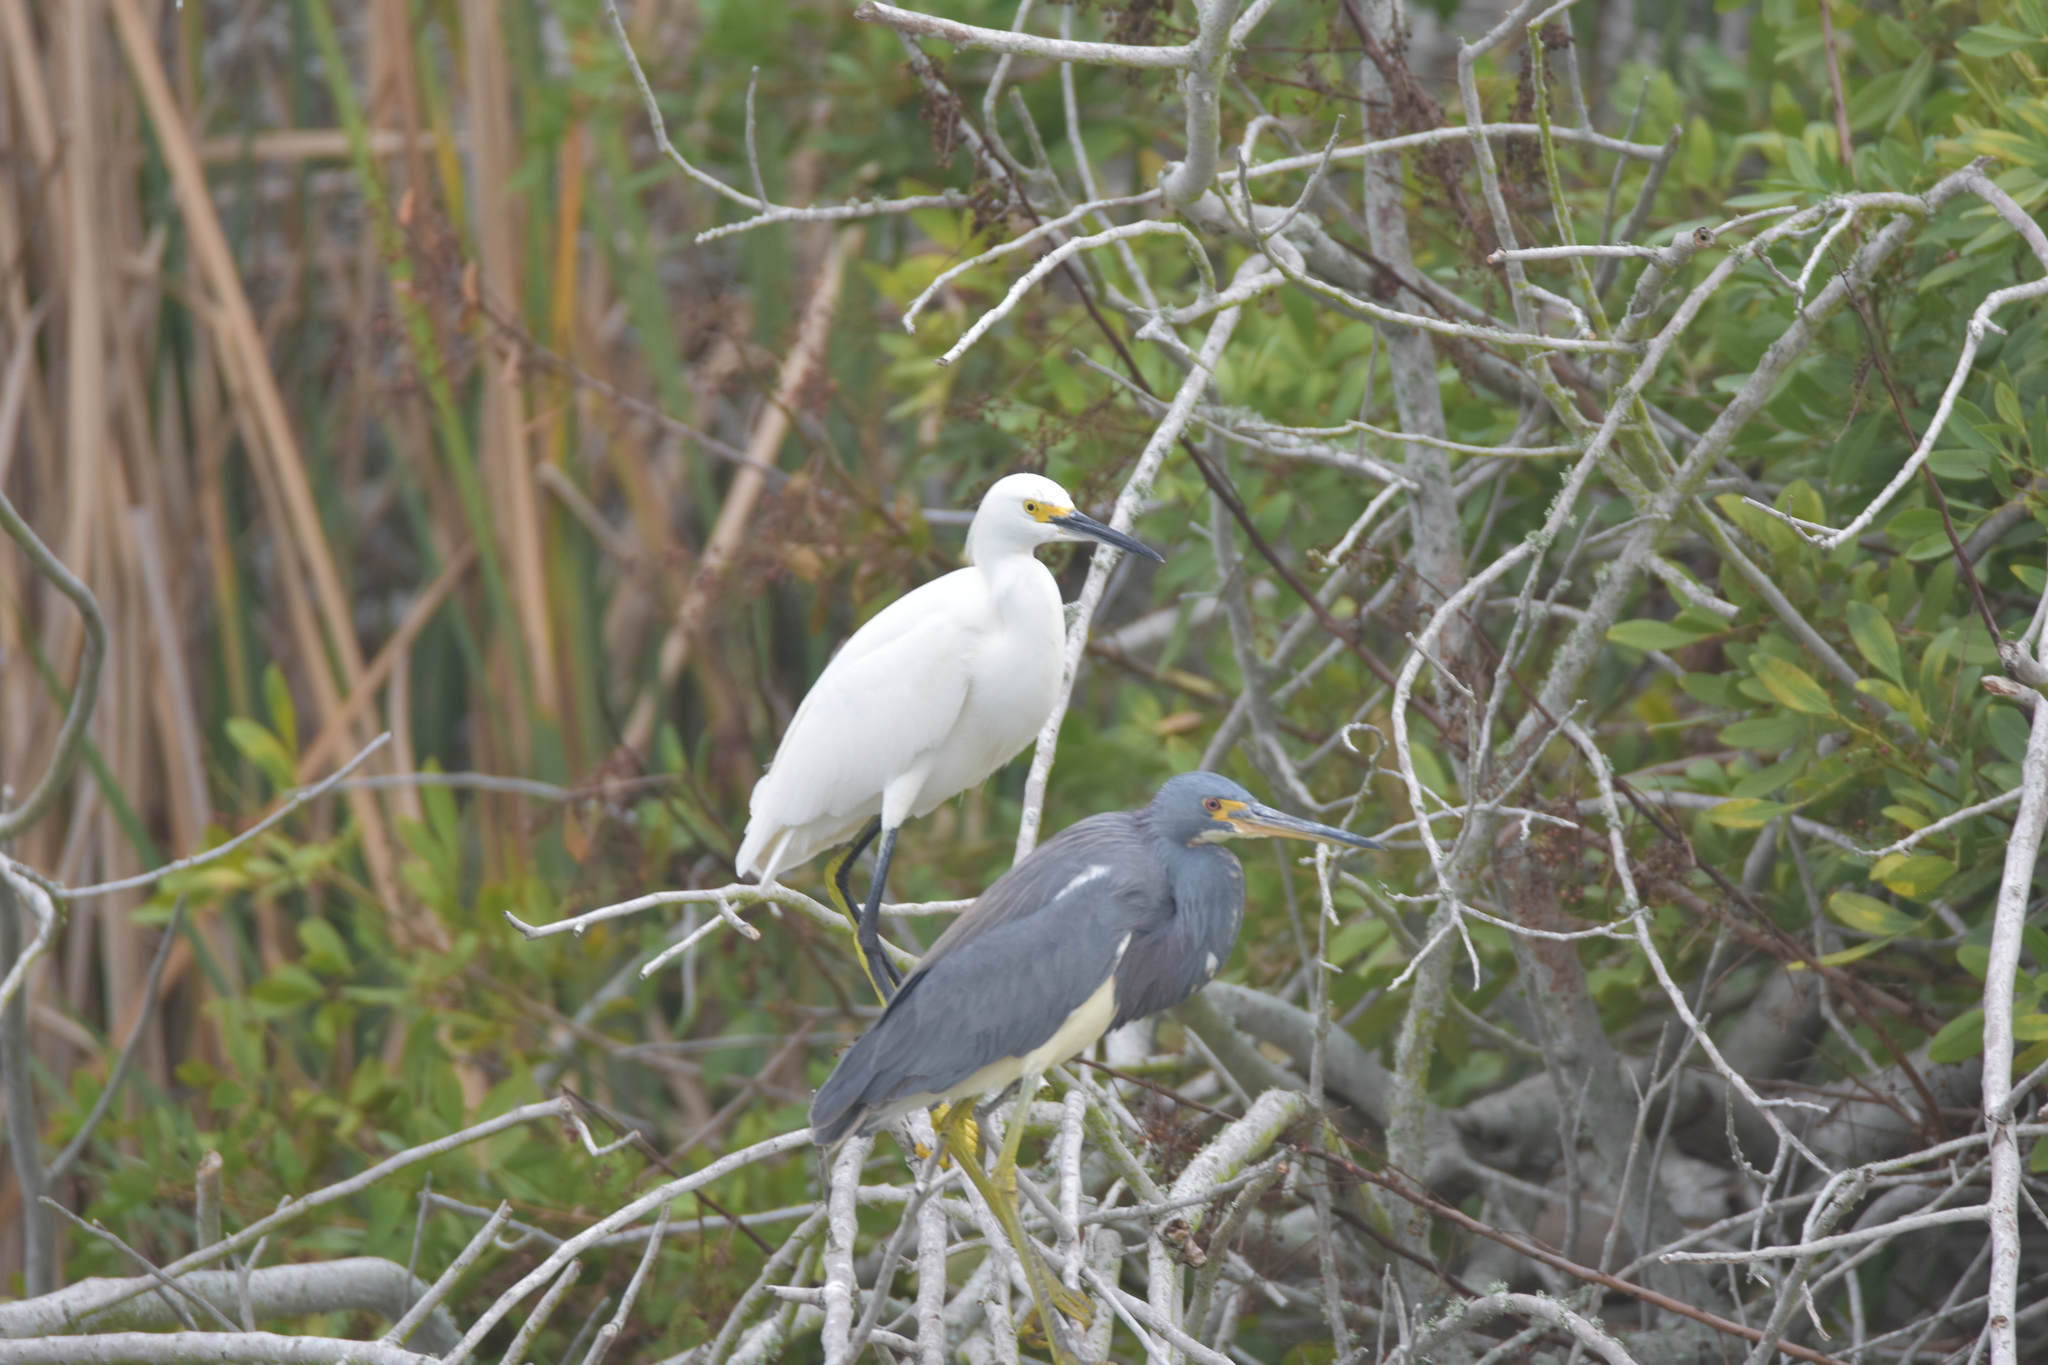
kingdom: Animalia
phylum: Chordata
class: Aves
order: Pelecaniformes
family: Ardeidae
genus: Egretta
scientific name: Egretta tricolor
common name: Tricolored heron
